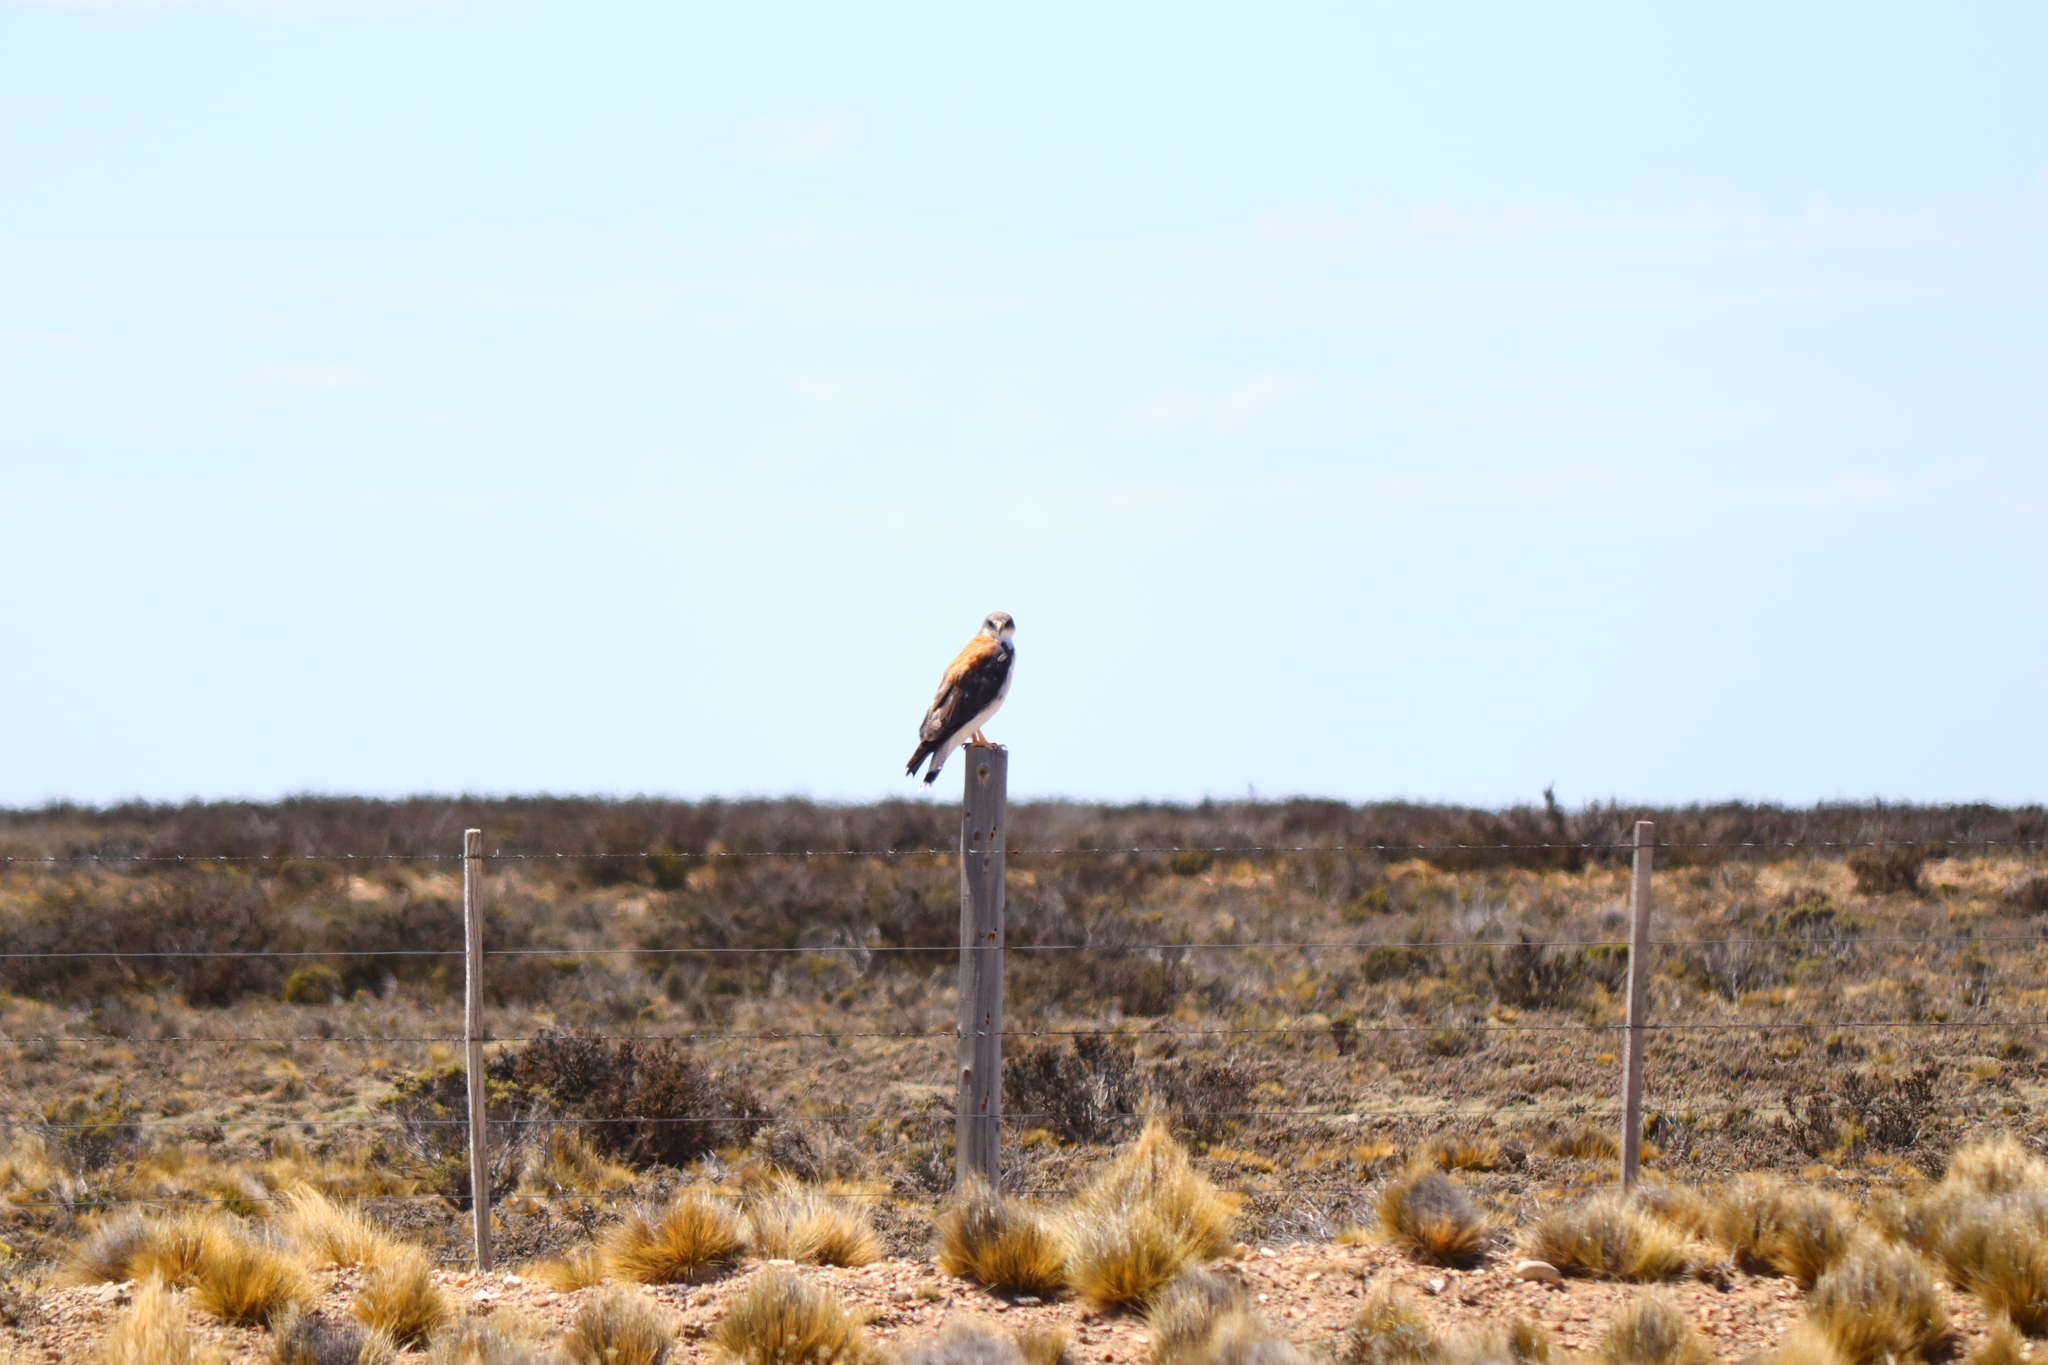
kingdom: Animalia
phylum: Chordata
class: Aves
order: Accipitriformes
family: Accipitridae
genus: Buteo
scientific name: Buteo polyosoma
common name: Variable hawk
